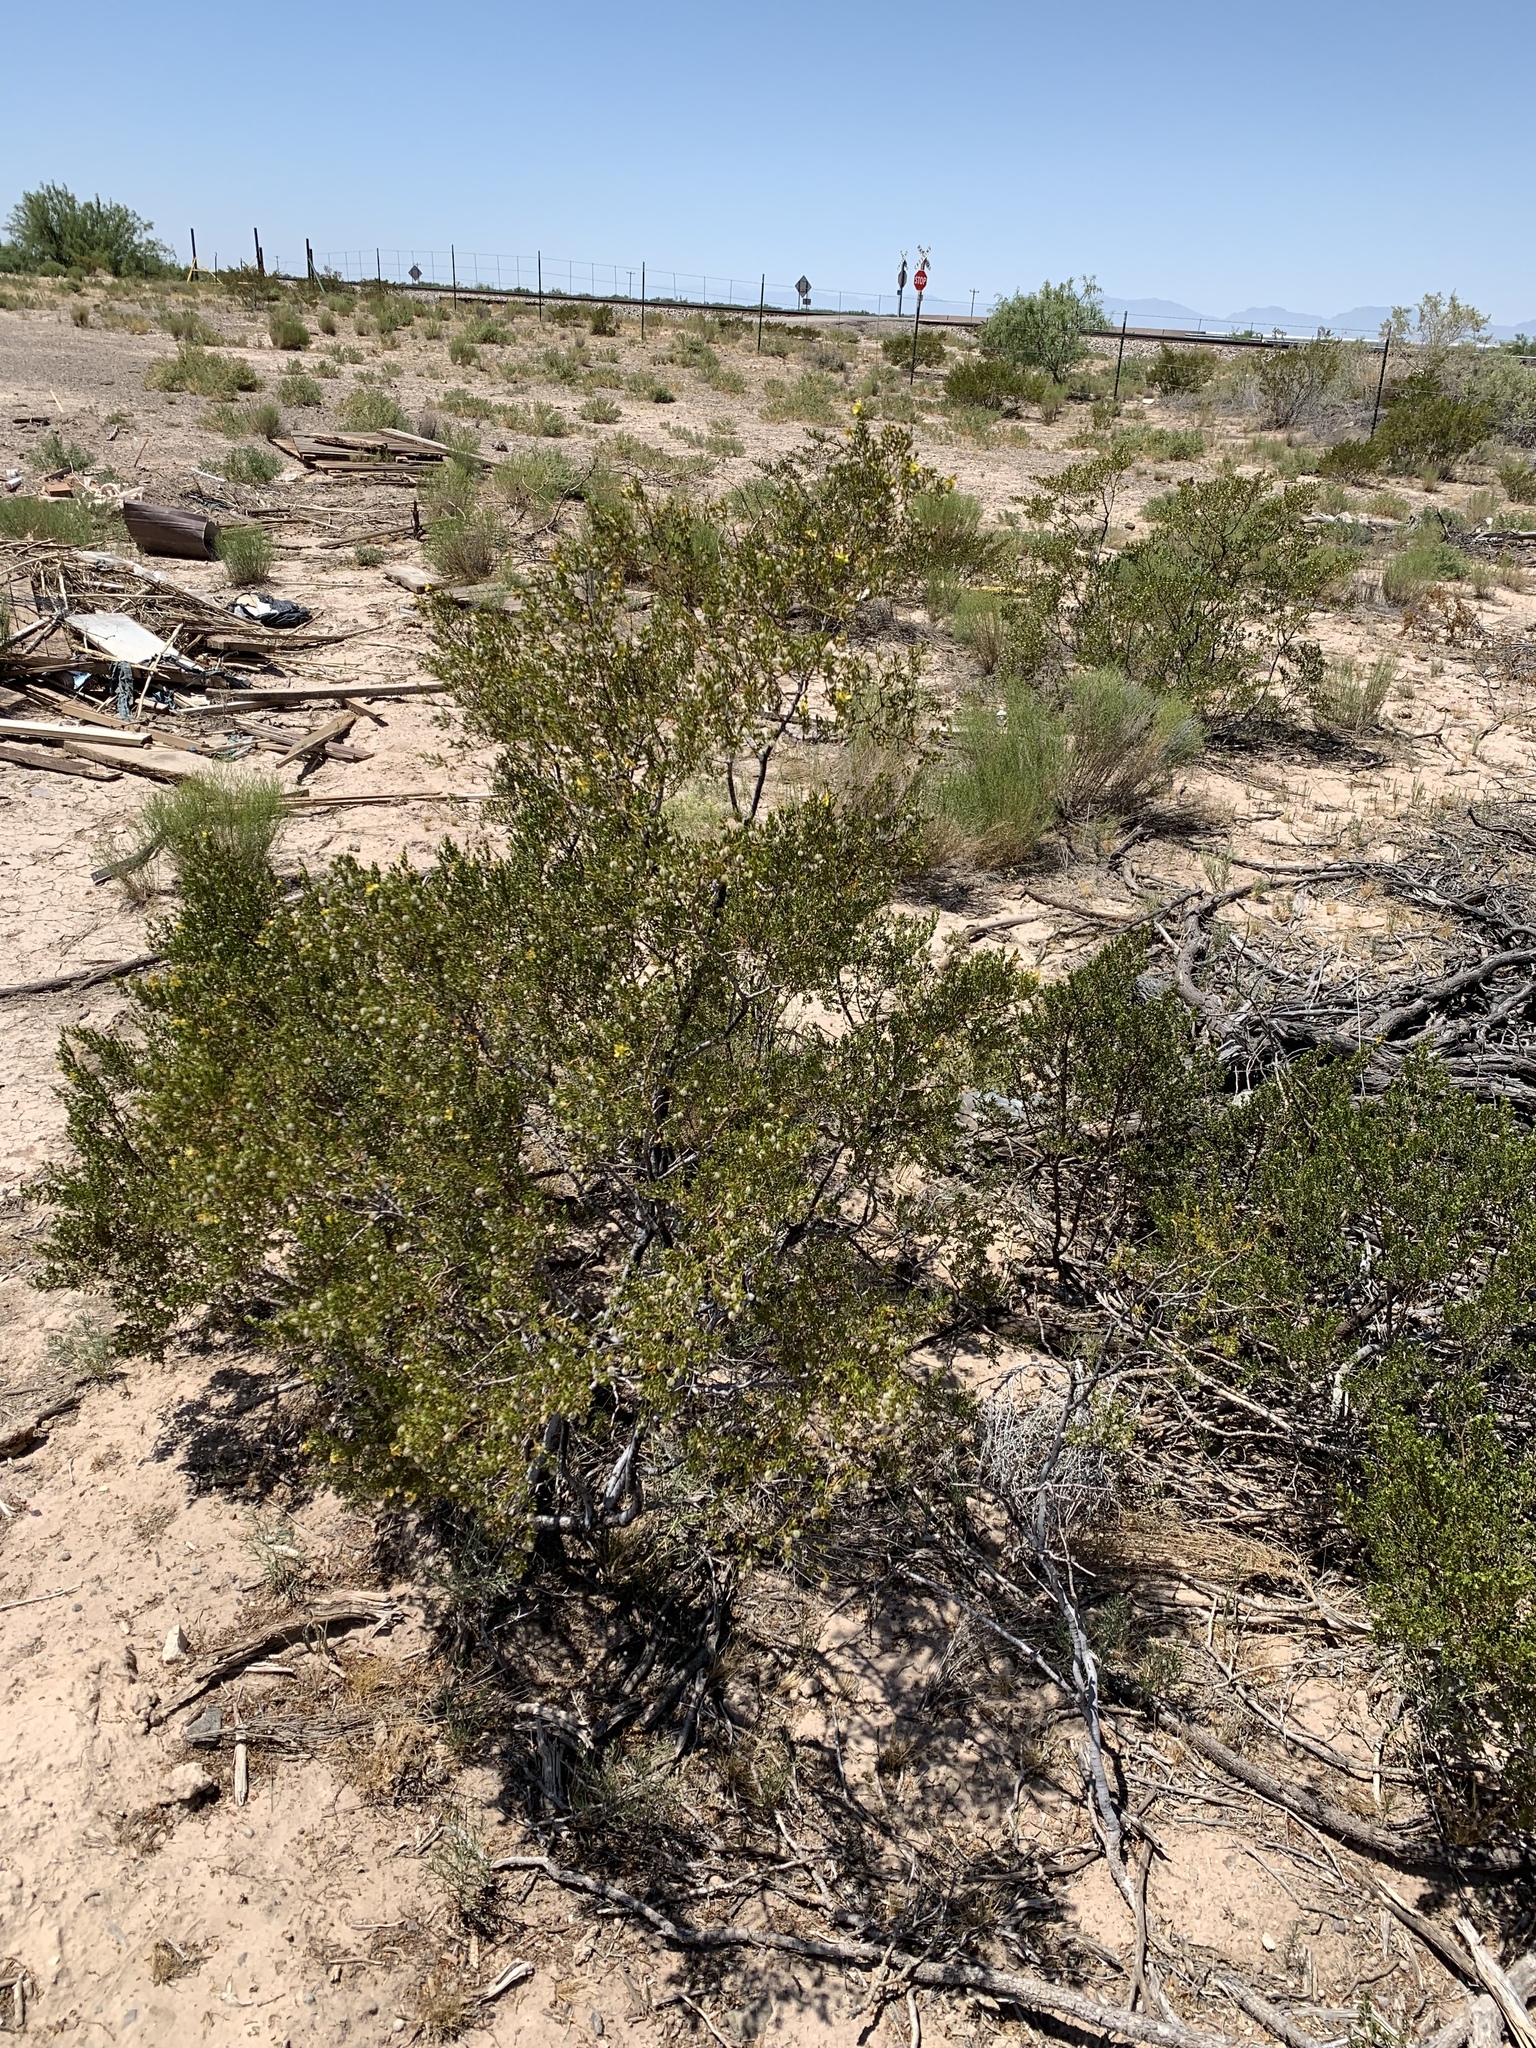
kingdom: Plantae
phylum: Tracheophyta
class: Magnoliopsida
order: Zygophyllales
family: Zygophyllaceae
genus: Larrea
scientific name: Larrea tridentata
